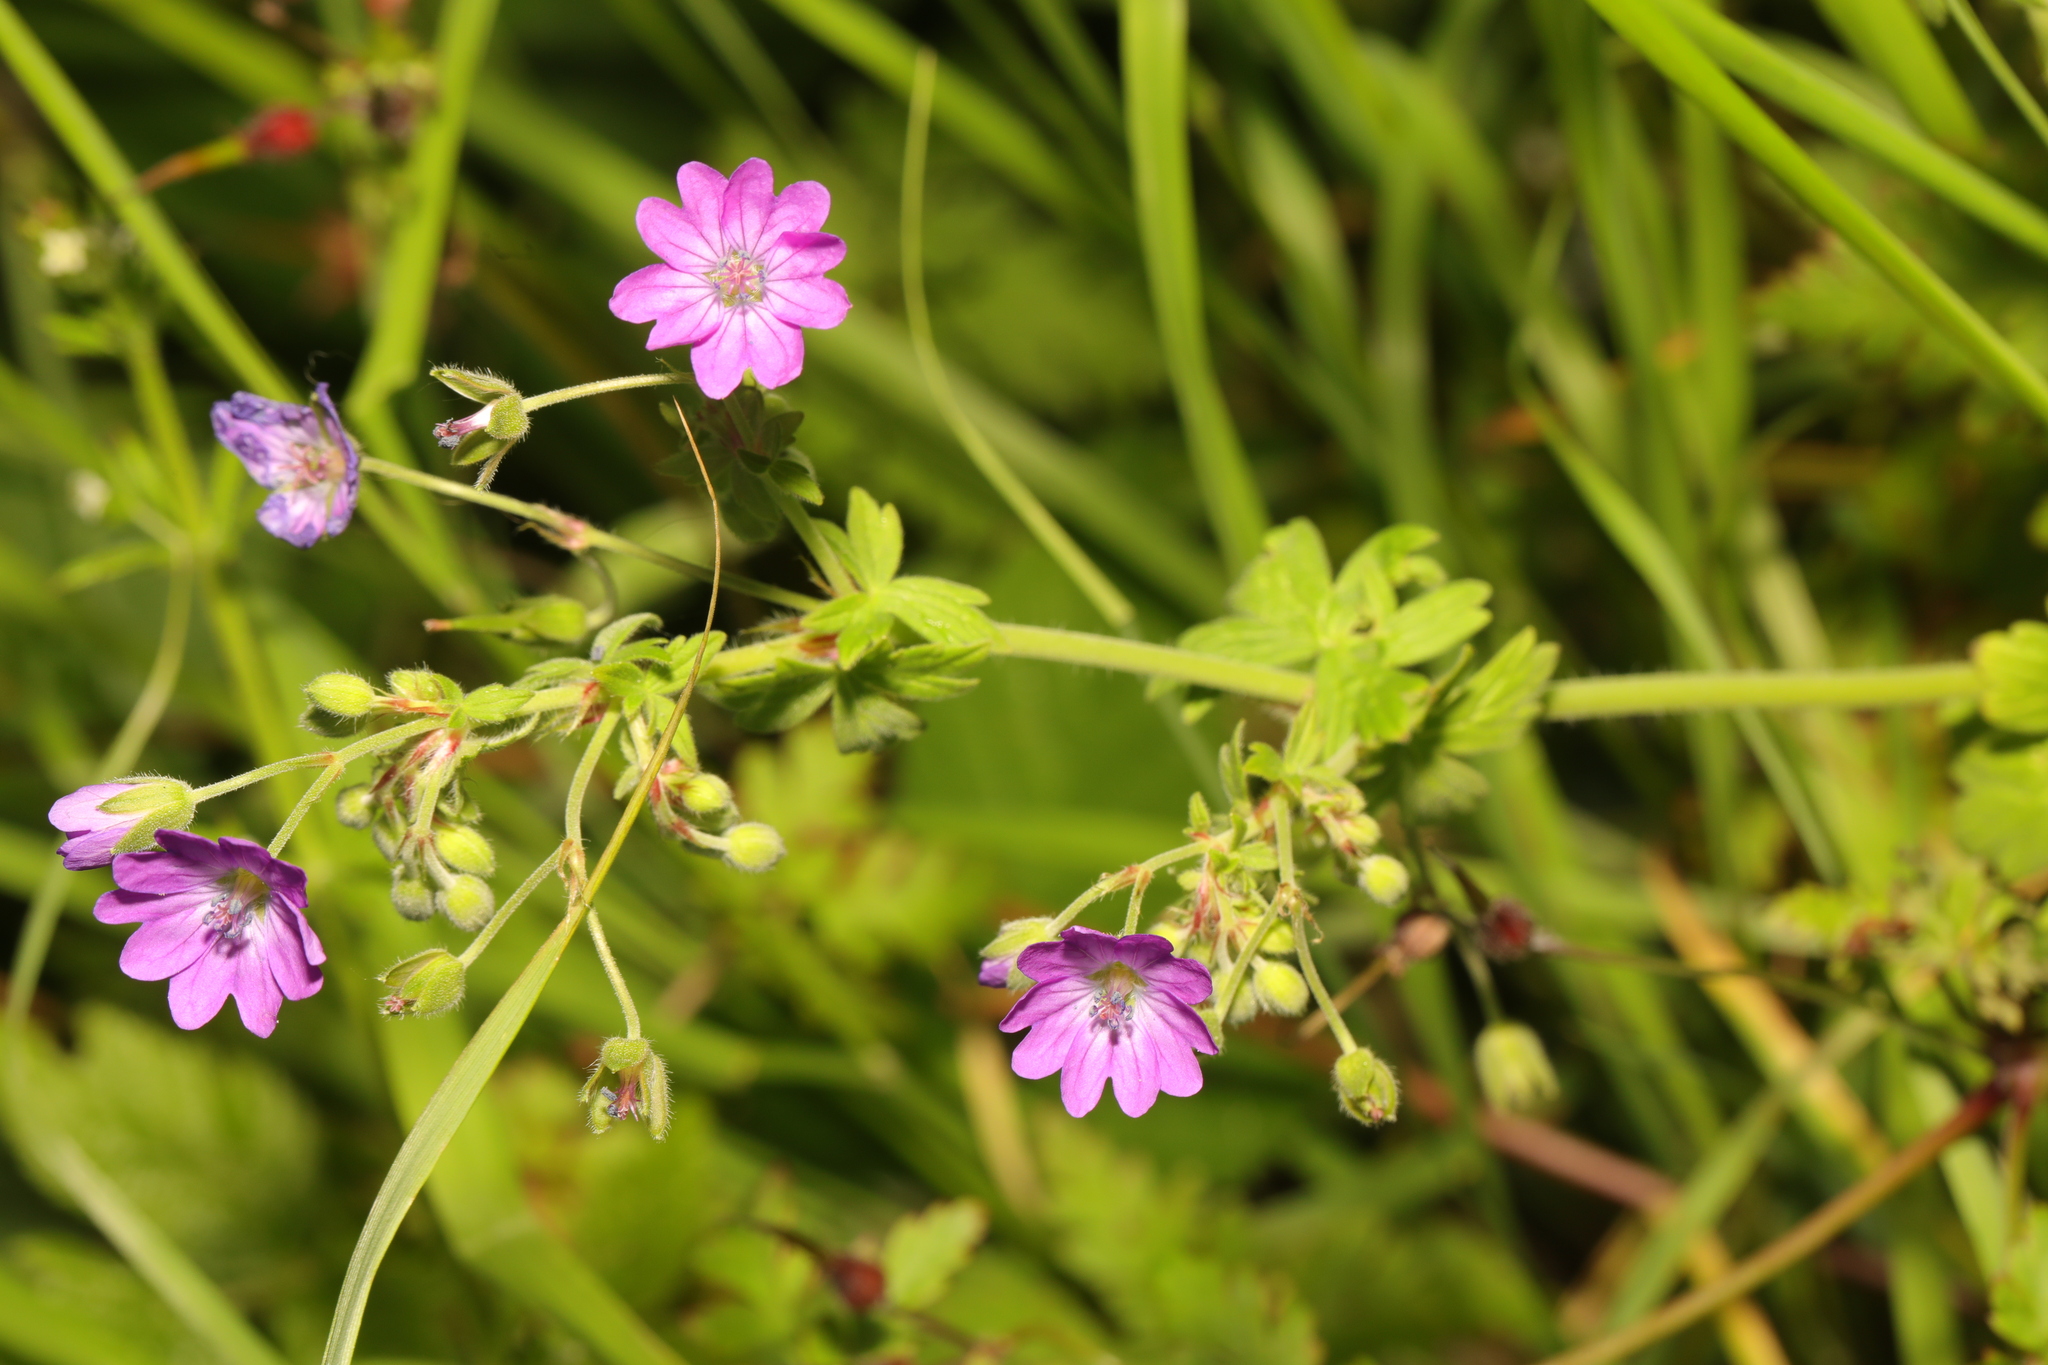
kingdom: Plantae
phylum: Tracheophyta
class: Magnoliopsida
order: Geraniales
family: Geraniaceae
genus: Geranium
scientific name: Geranium pyrenaicum
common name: Hedgerow crane's-bill
